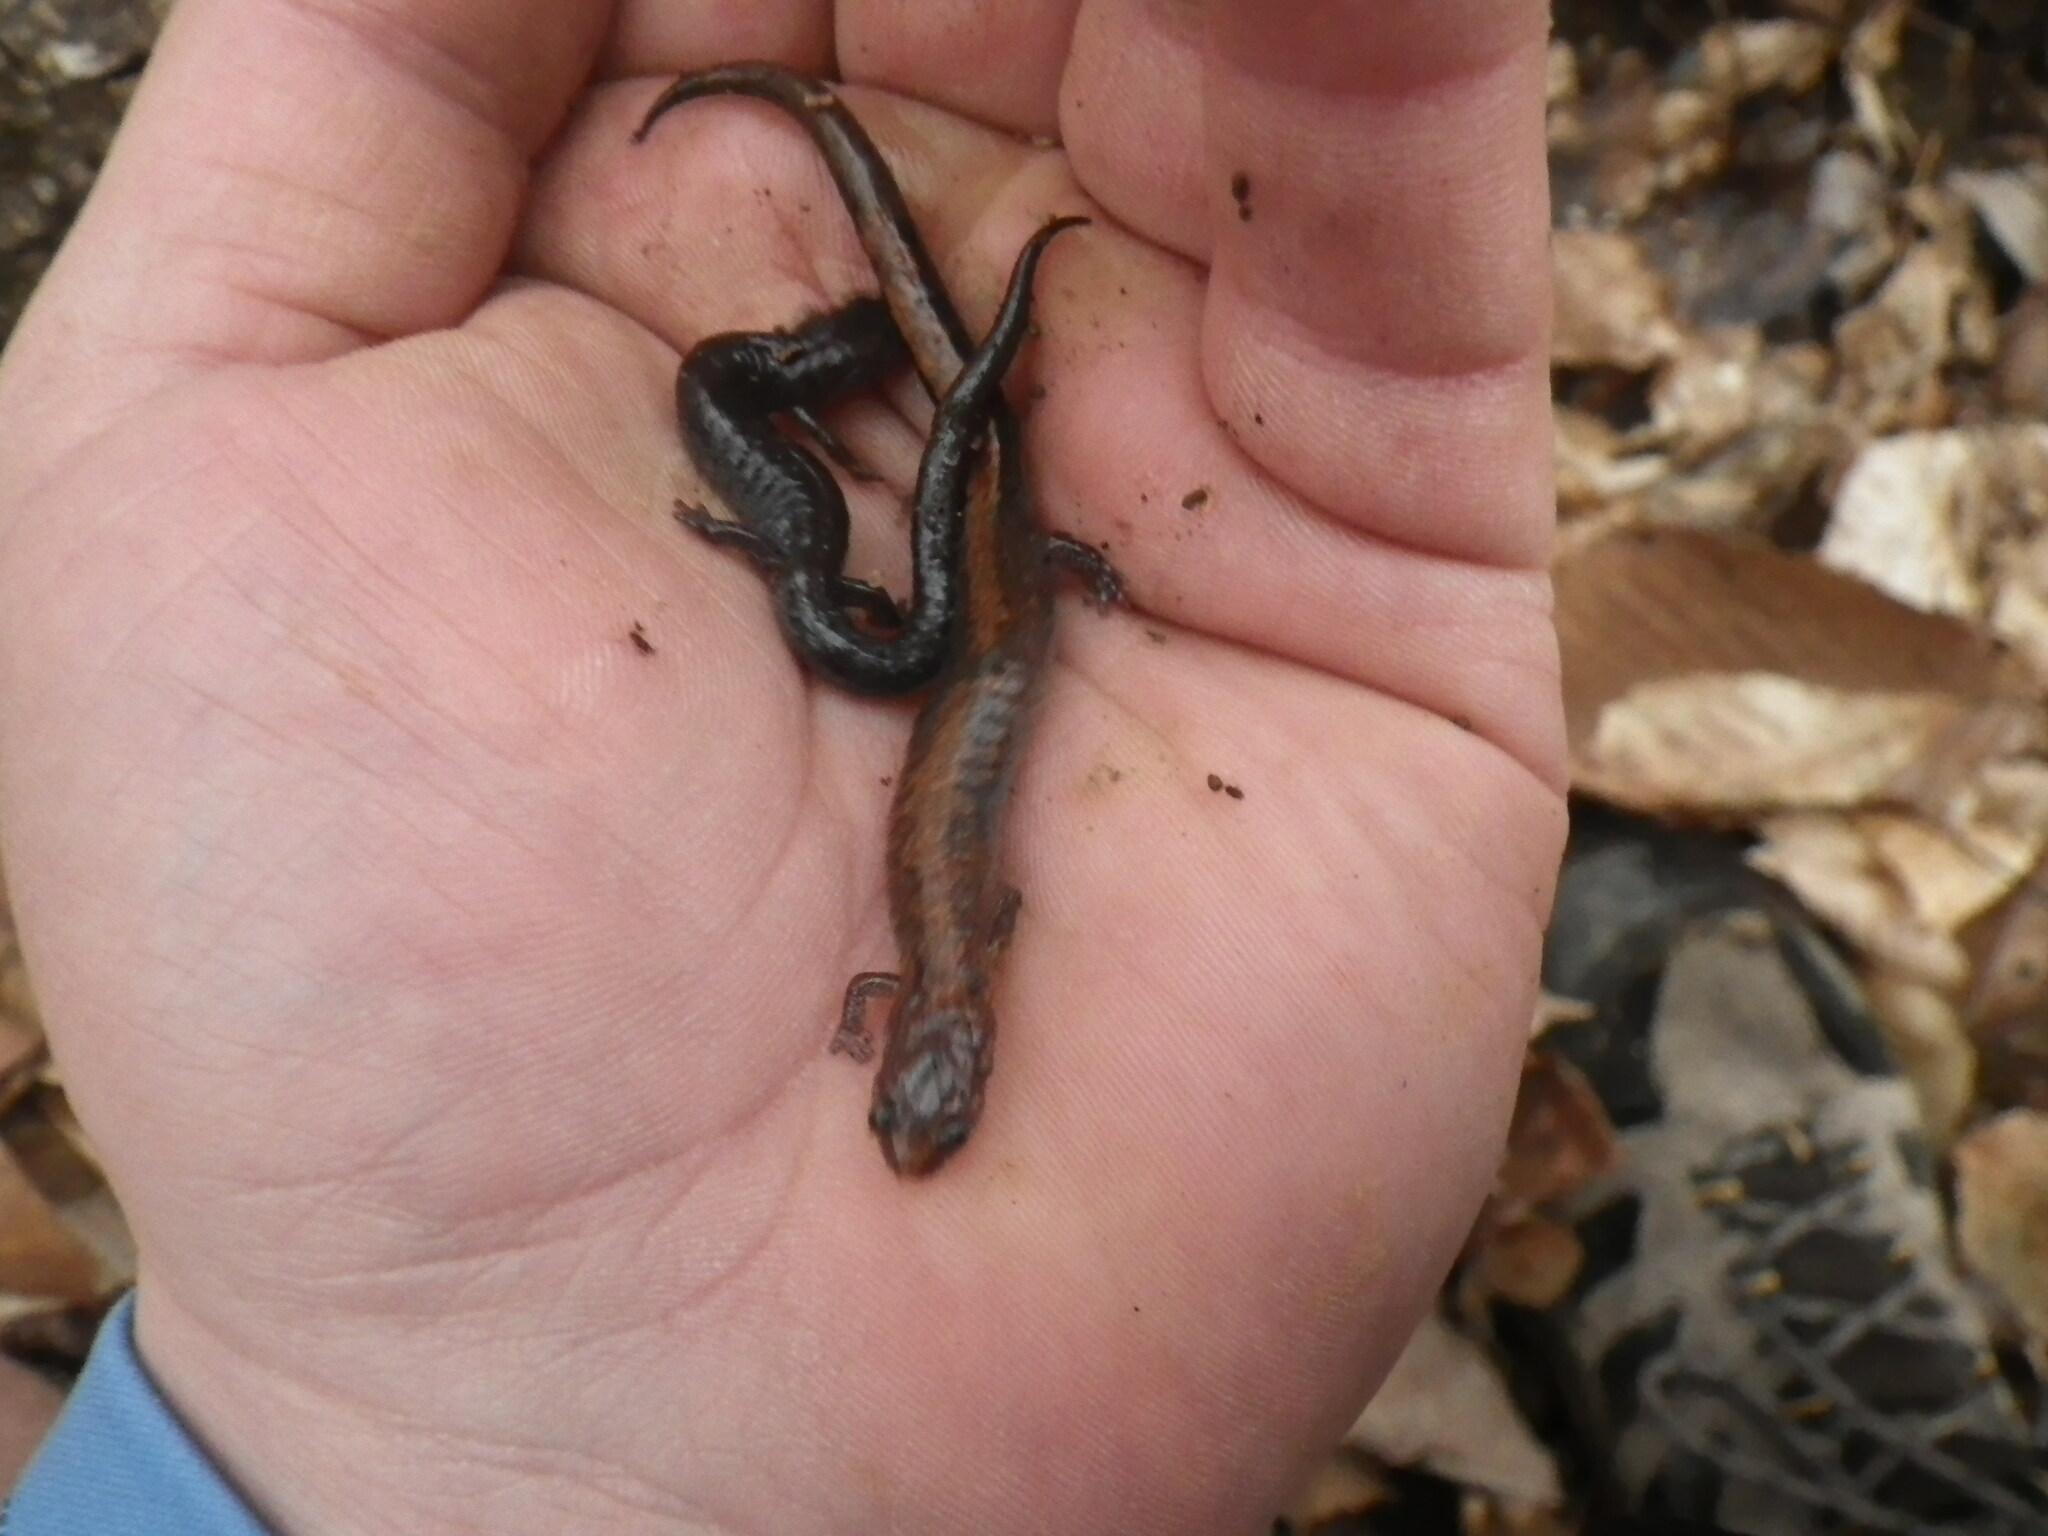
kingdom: Animalia
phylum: Chordata
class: Amphibia
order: Caudata
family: Plethodontidae
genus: Plethodon
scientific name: Plethodon dorsalis
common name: Northern zigzag salamander
